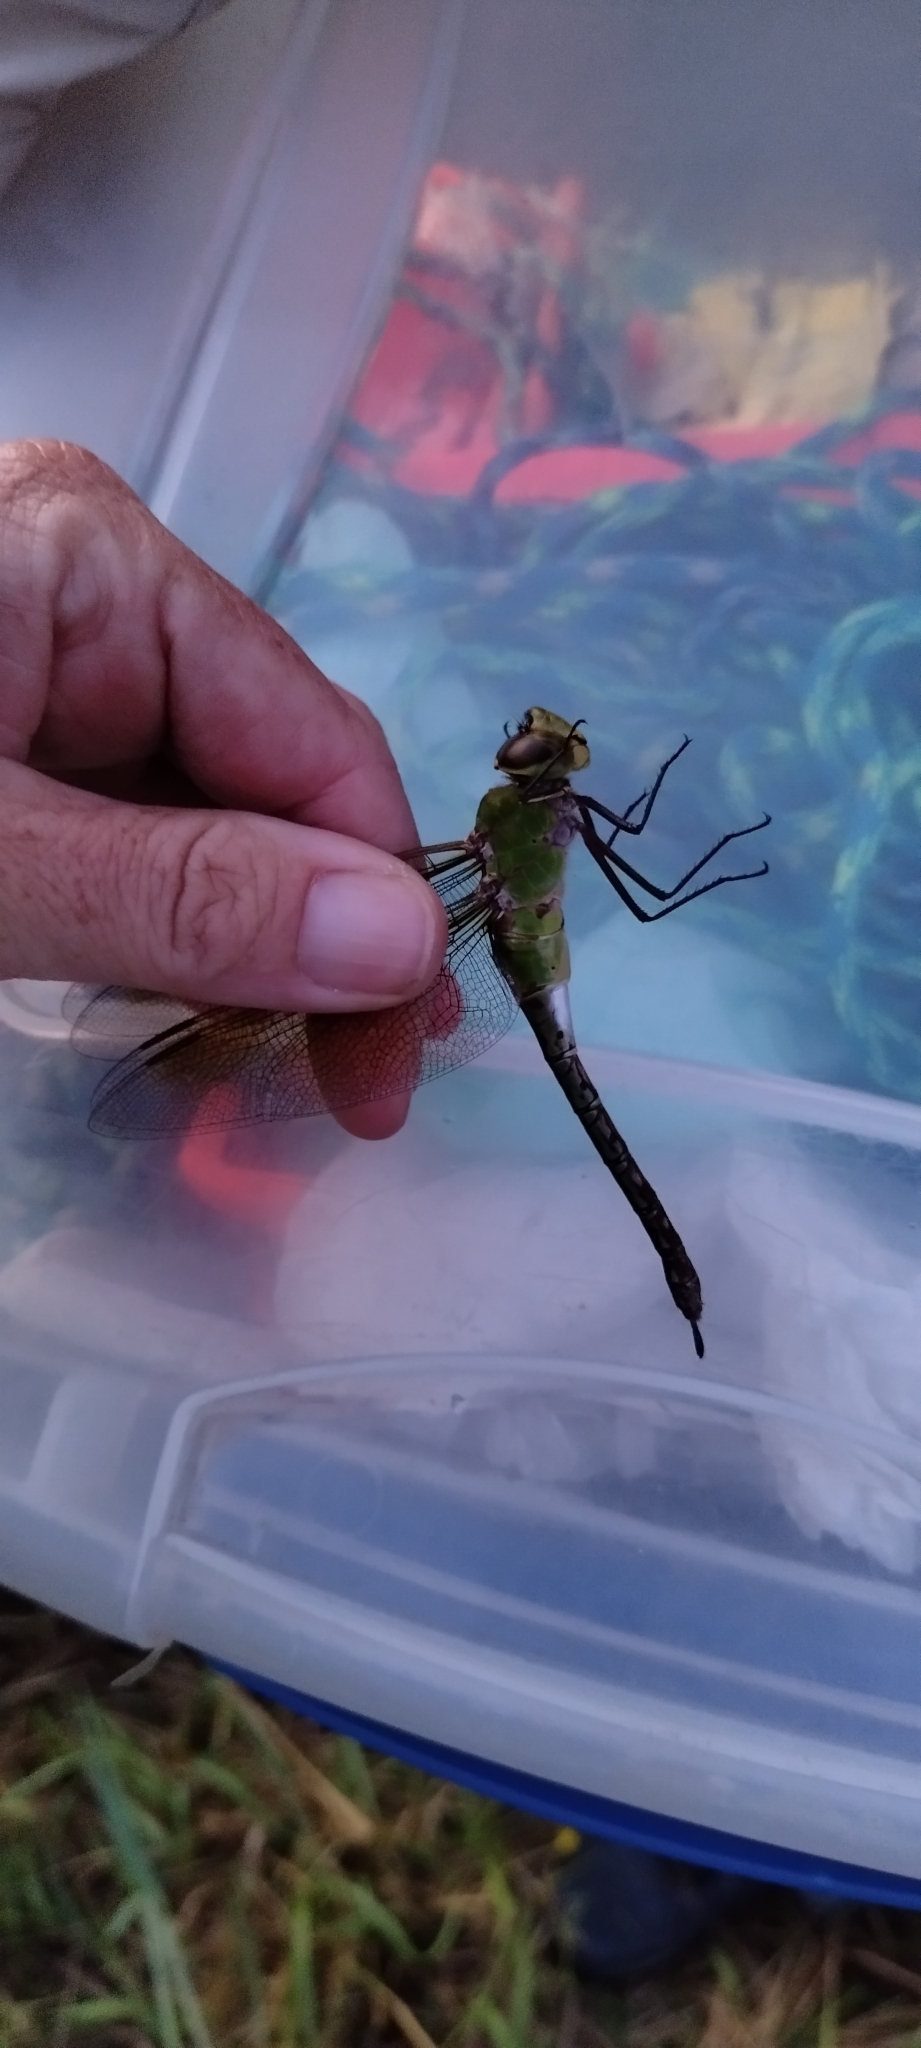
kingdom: Animalia
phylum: Arthropoda
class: Insecta
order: Odonata
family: Aeshnidae
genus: Anax
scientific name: Anax junius
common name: Common green darner
